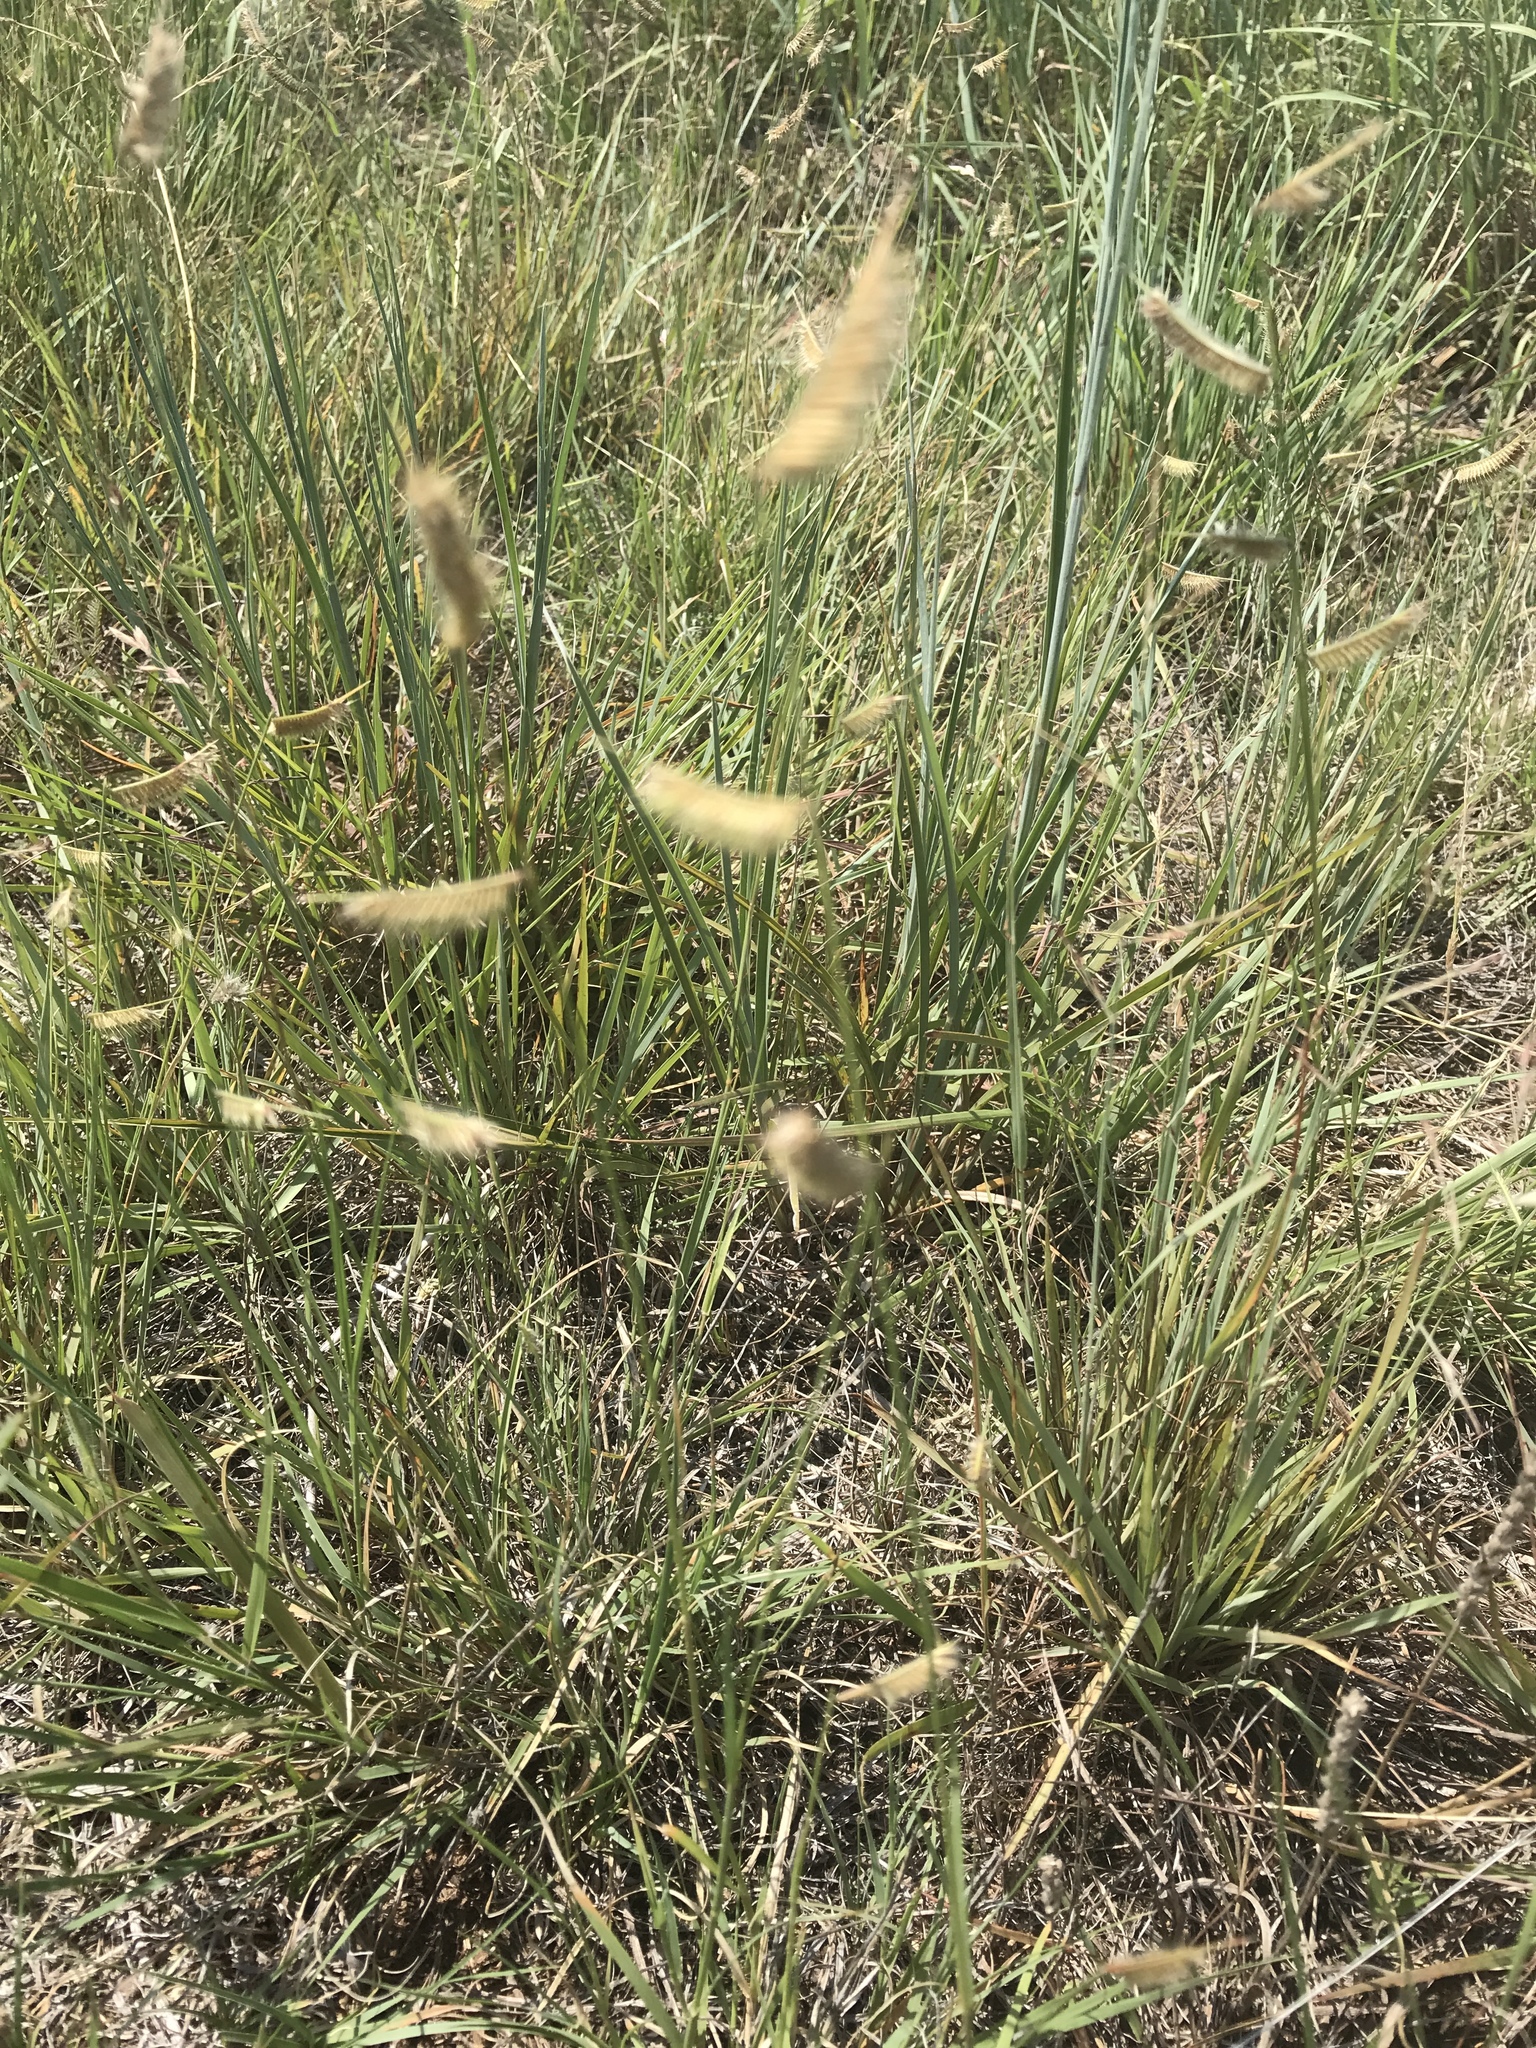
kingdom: Plantae
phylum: Tracheophyta
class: Liliopsida
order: Poales
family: Poaceae
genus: Bouteloua
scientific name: Bouteloua hirsuta
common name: Hairy grama
